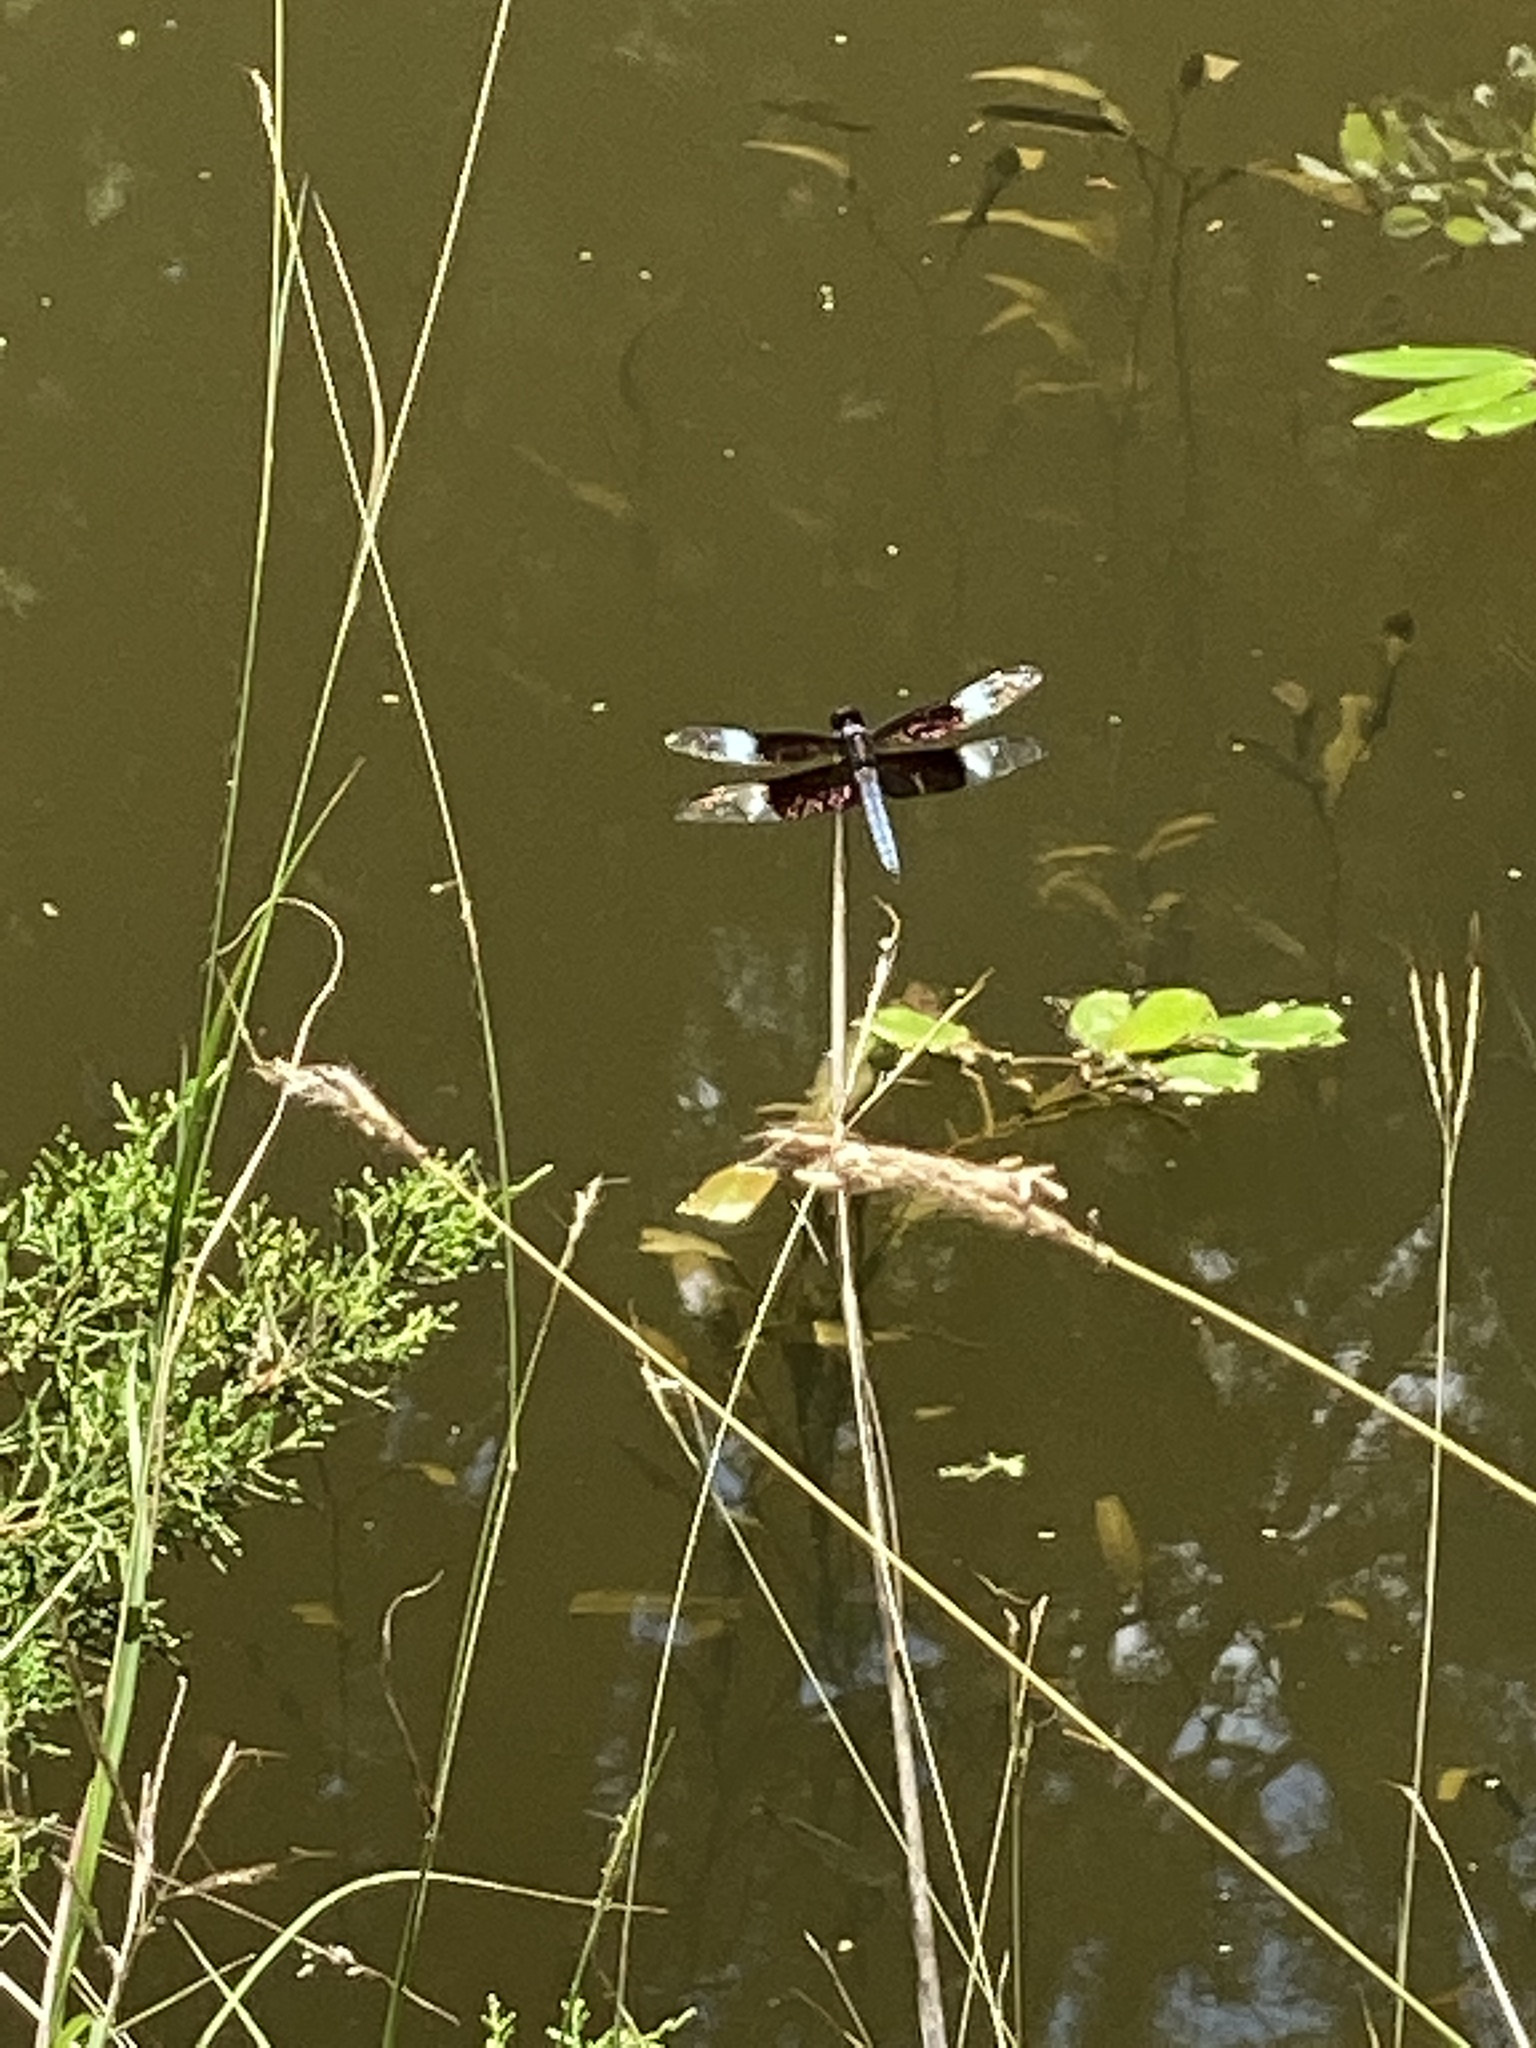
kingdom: Animalia
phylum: Arthropoda
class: Insecta
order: Odonata
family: Libellulidae
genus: Libellula
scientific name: Libellula luctuosa
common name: Widow skimmer
